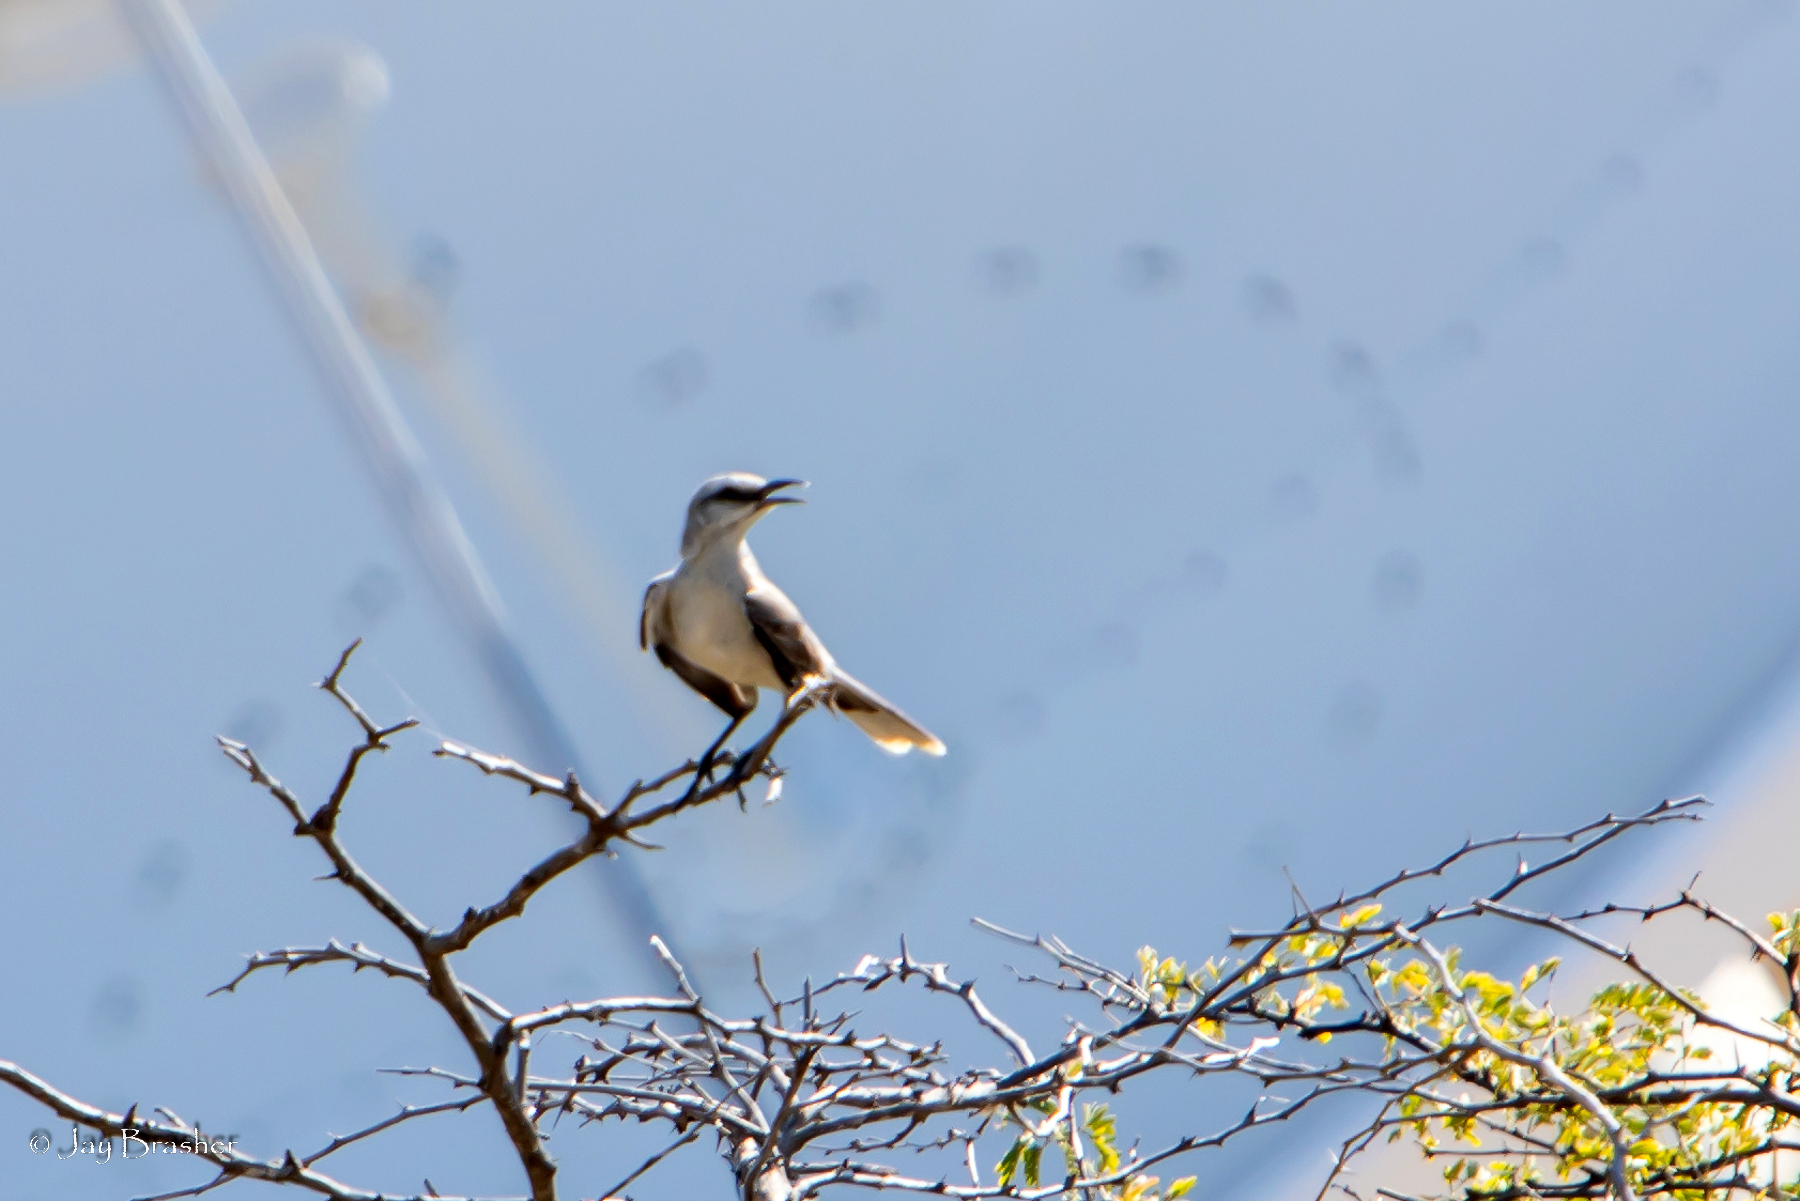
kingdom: Animalia
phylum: Chordata
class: Aves
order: Passeriformes
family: Mimidae
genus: Mimus
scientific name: Mimus gilvus
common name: Tropical mockingbird
